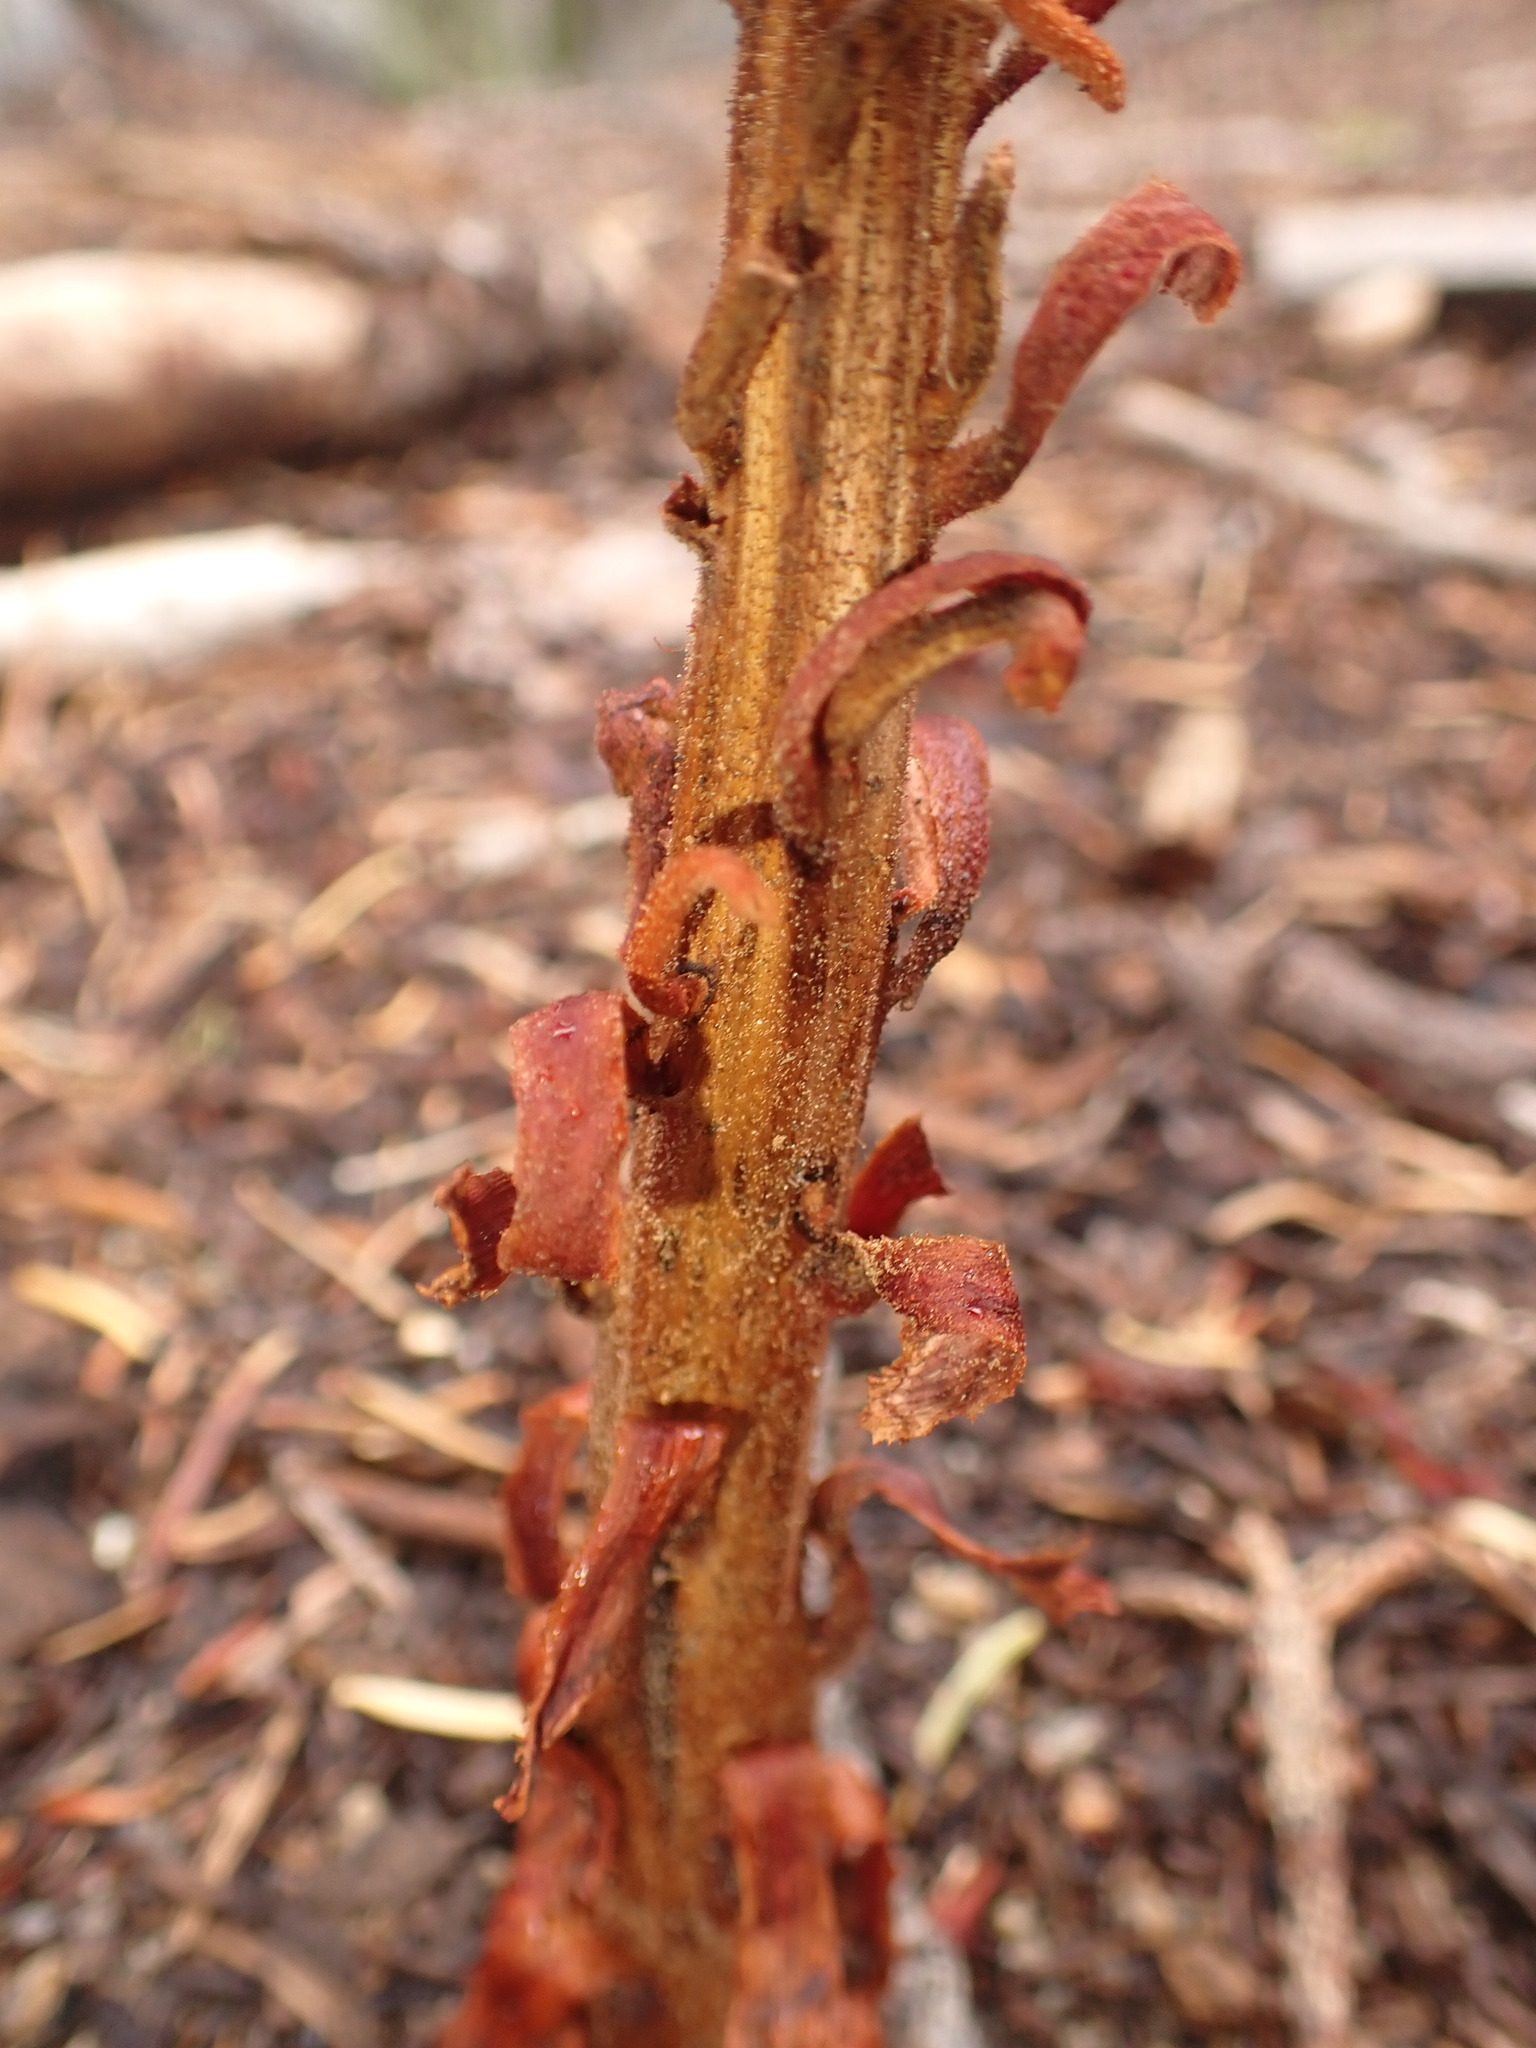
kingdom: Plantae
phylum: Tracheophyta
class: Magnoliopsida
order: Ericales
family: Ericaceae
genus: Pterospora
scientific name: Pterospora andromedea
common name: Giant bird's-nest
